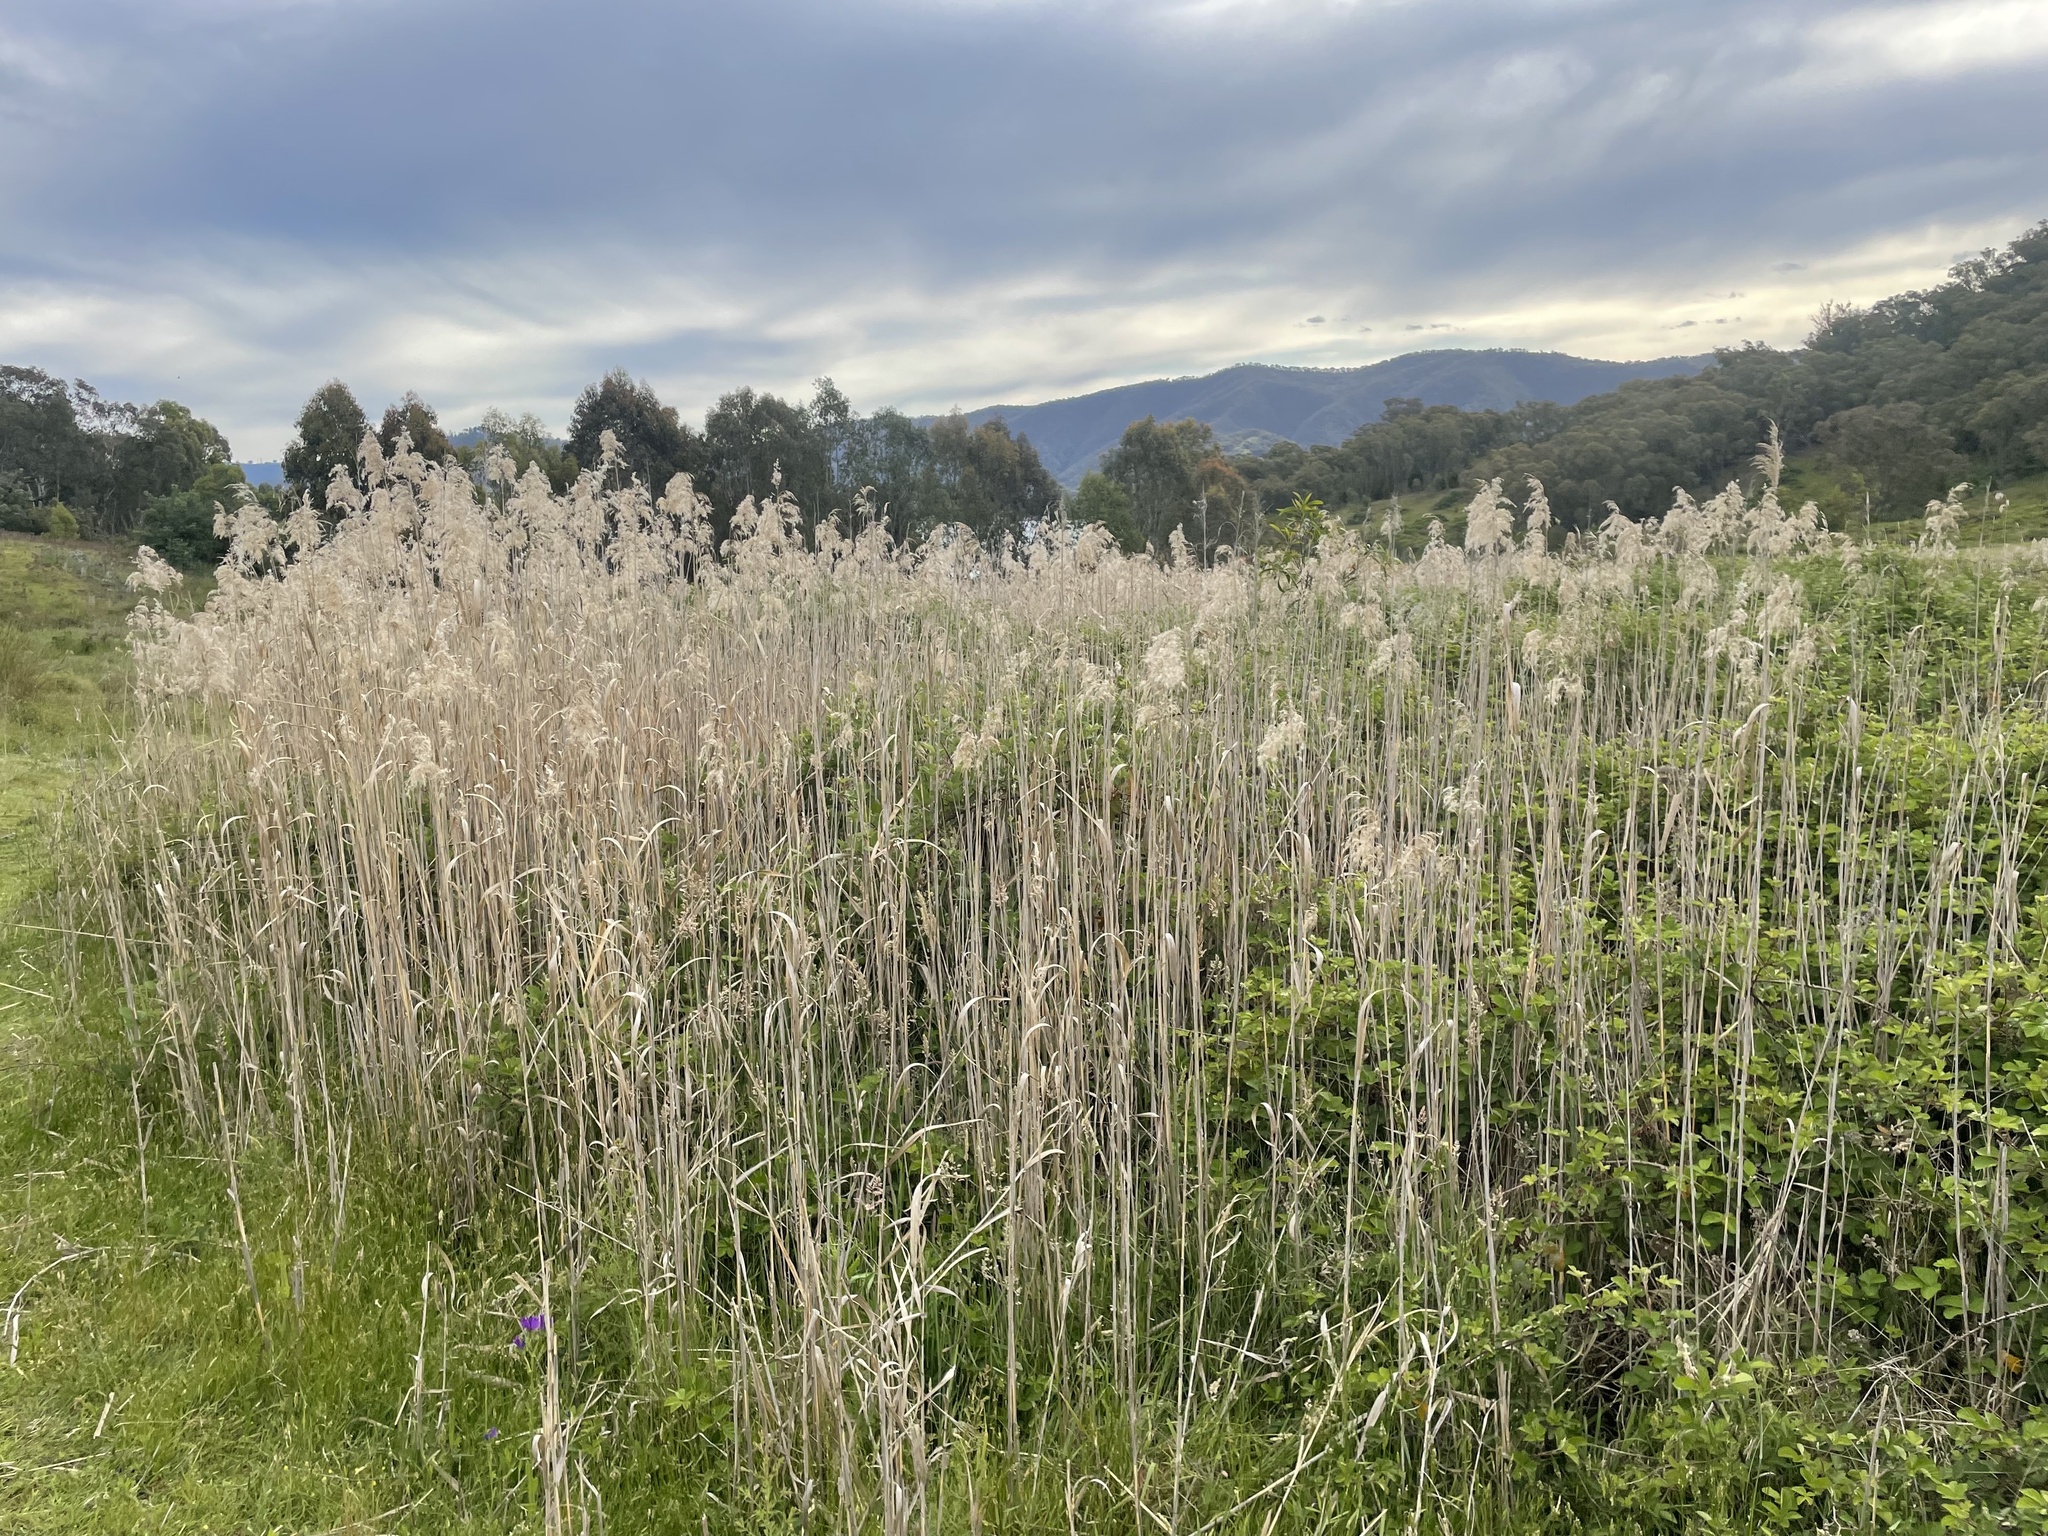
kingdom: Plantae
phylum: Tracheophyta
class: Liliopsida
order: Poales
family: Poaceae
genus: Phragmites
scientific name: Phragmites australis
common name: Common reed
